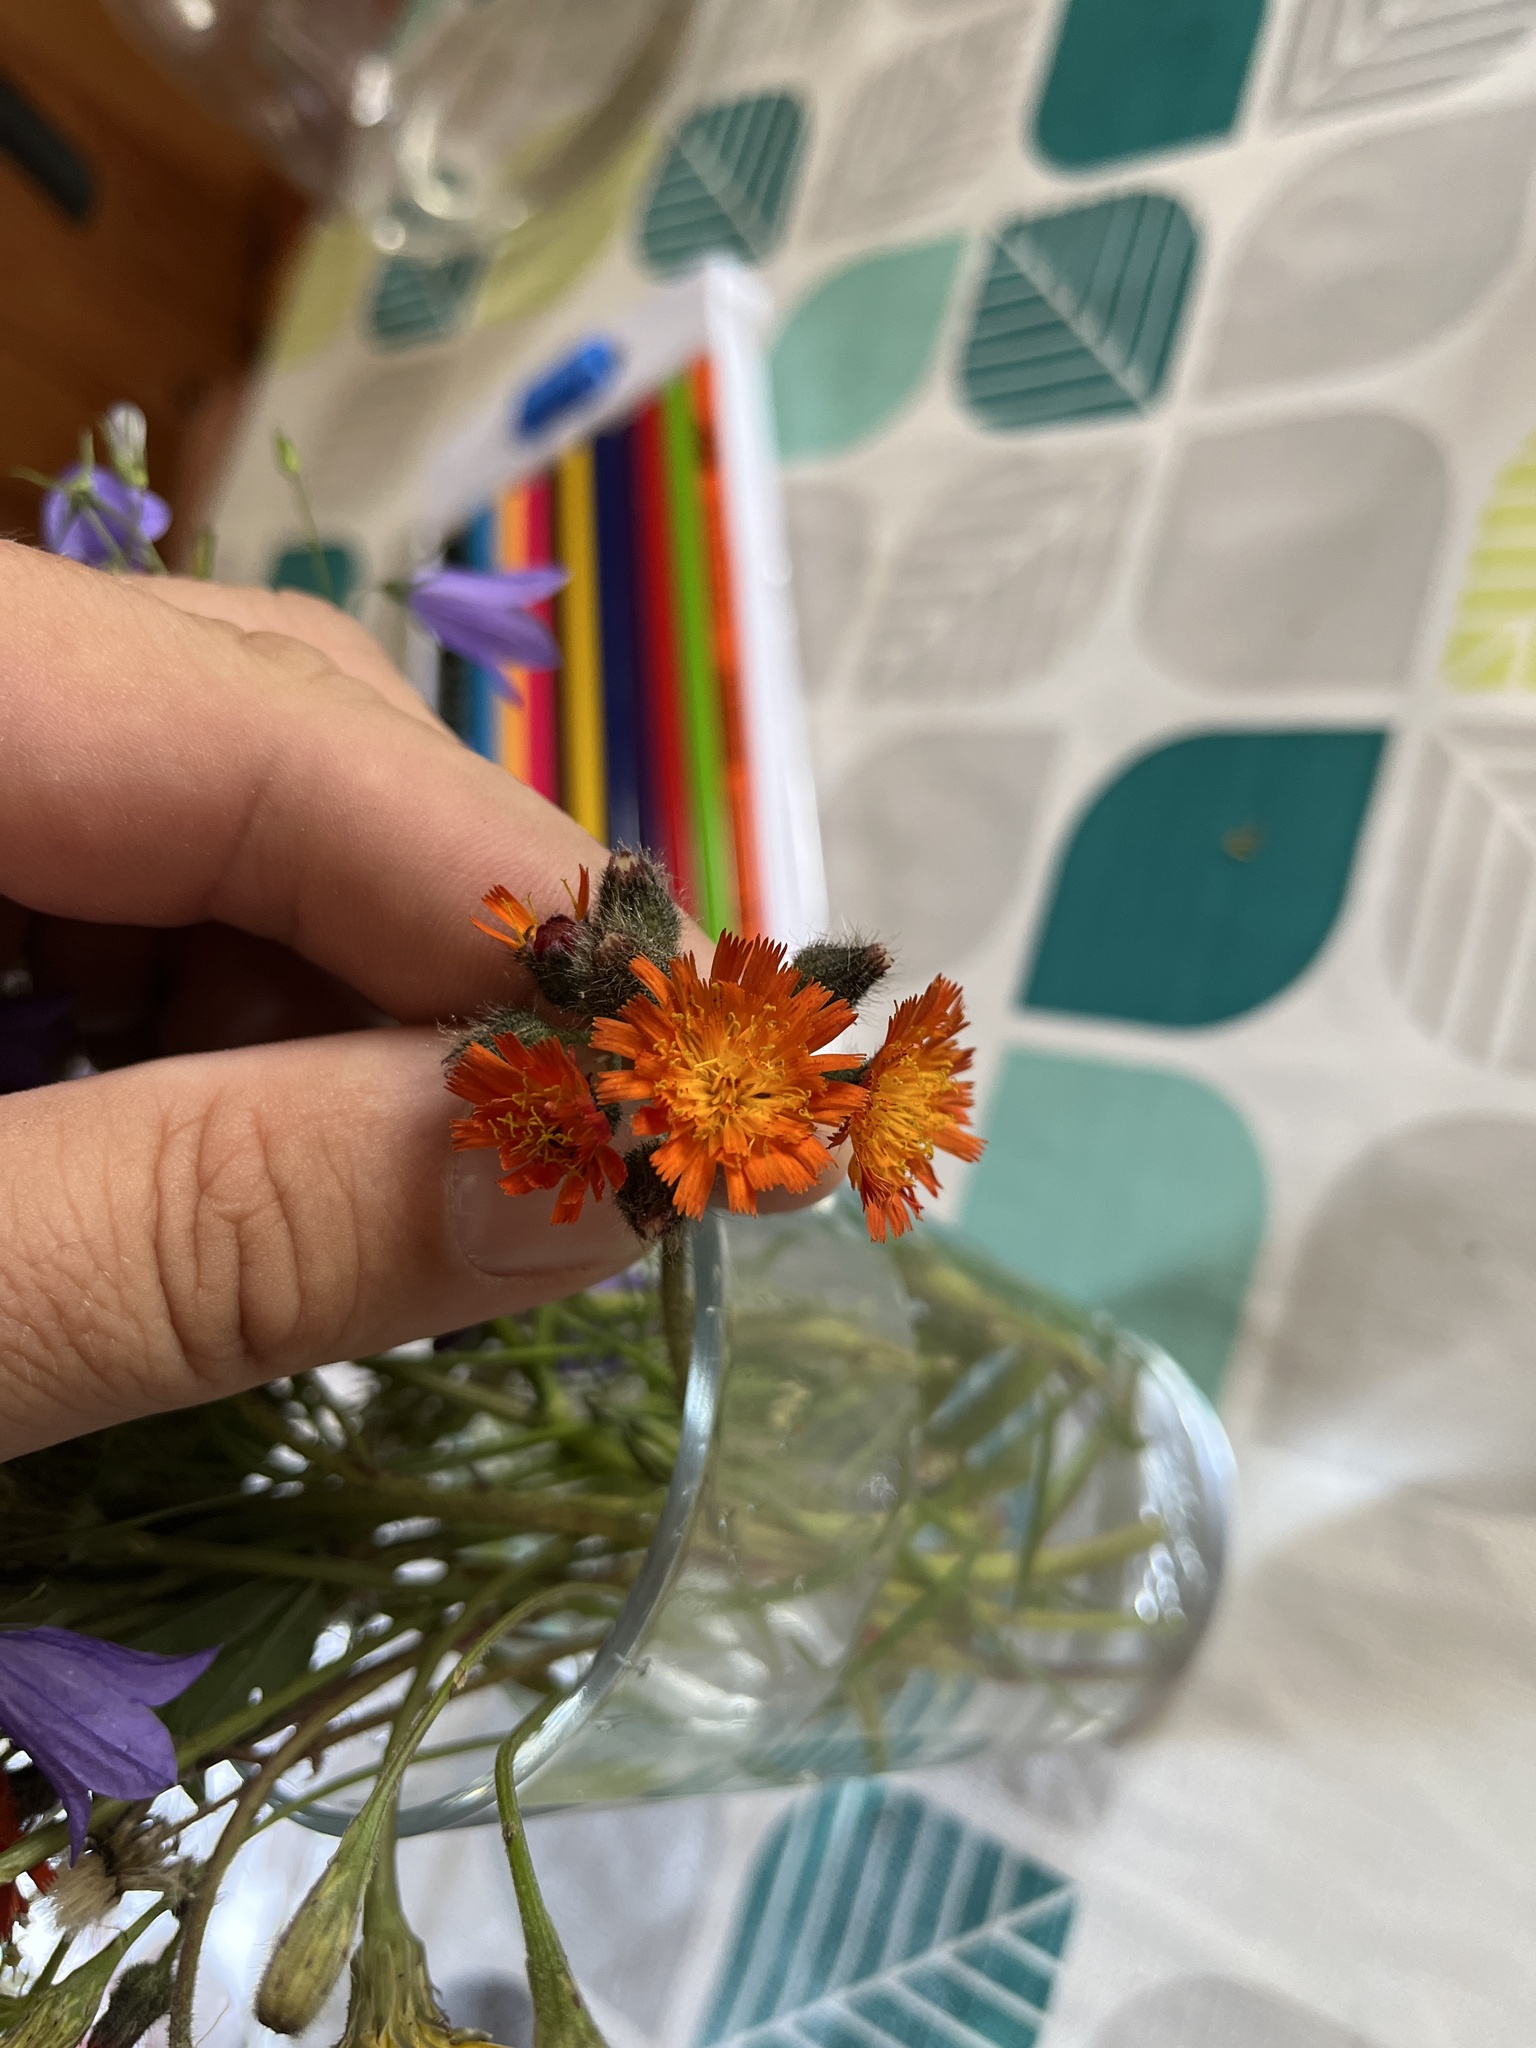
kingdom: Plantae
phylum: Tracheophyta
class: Magnoliopsida
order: Asterales
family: Asteraceae
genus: Pilosella
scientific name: Pilosella aurantiaca
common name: Fox-and-cubs
